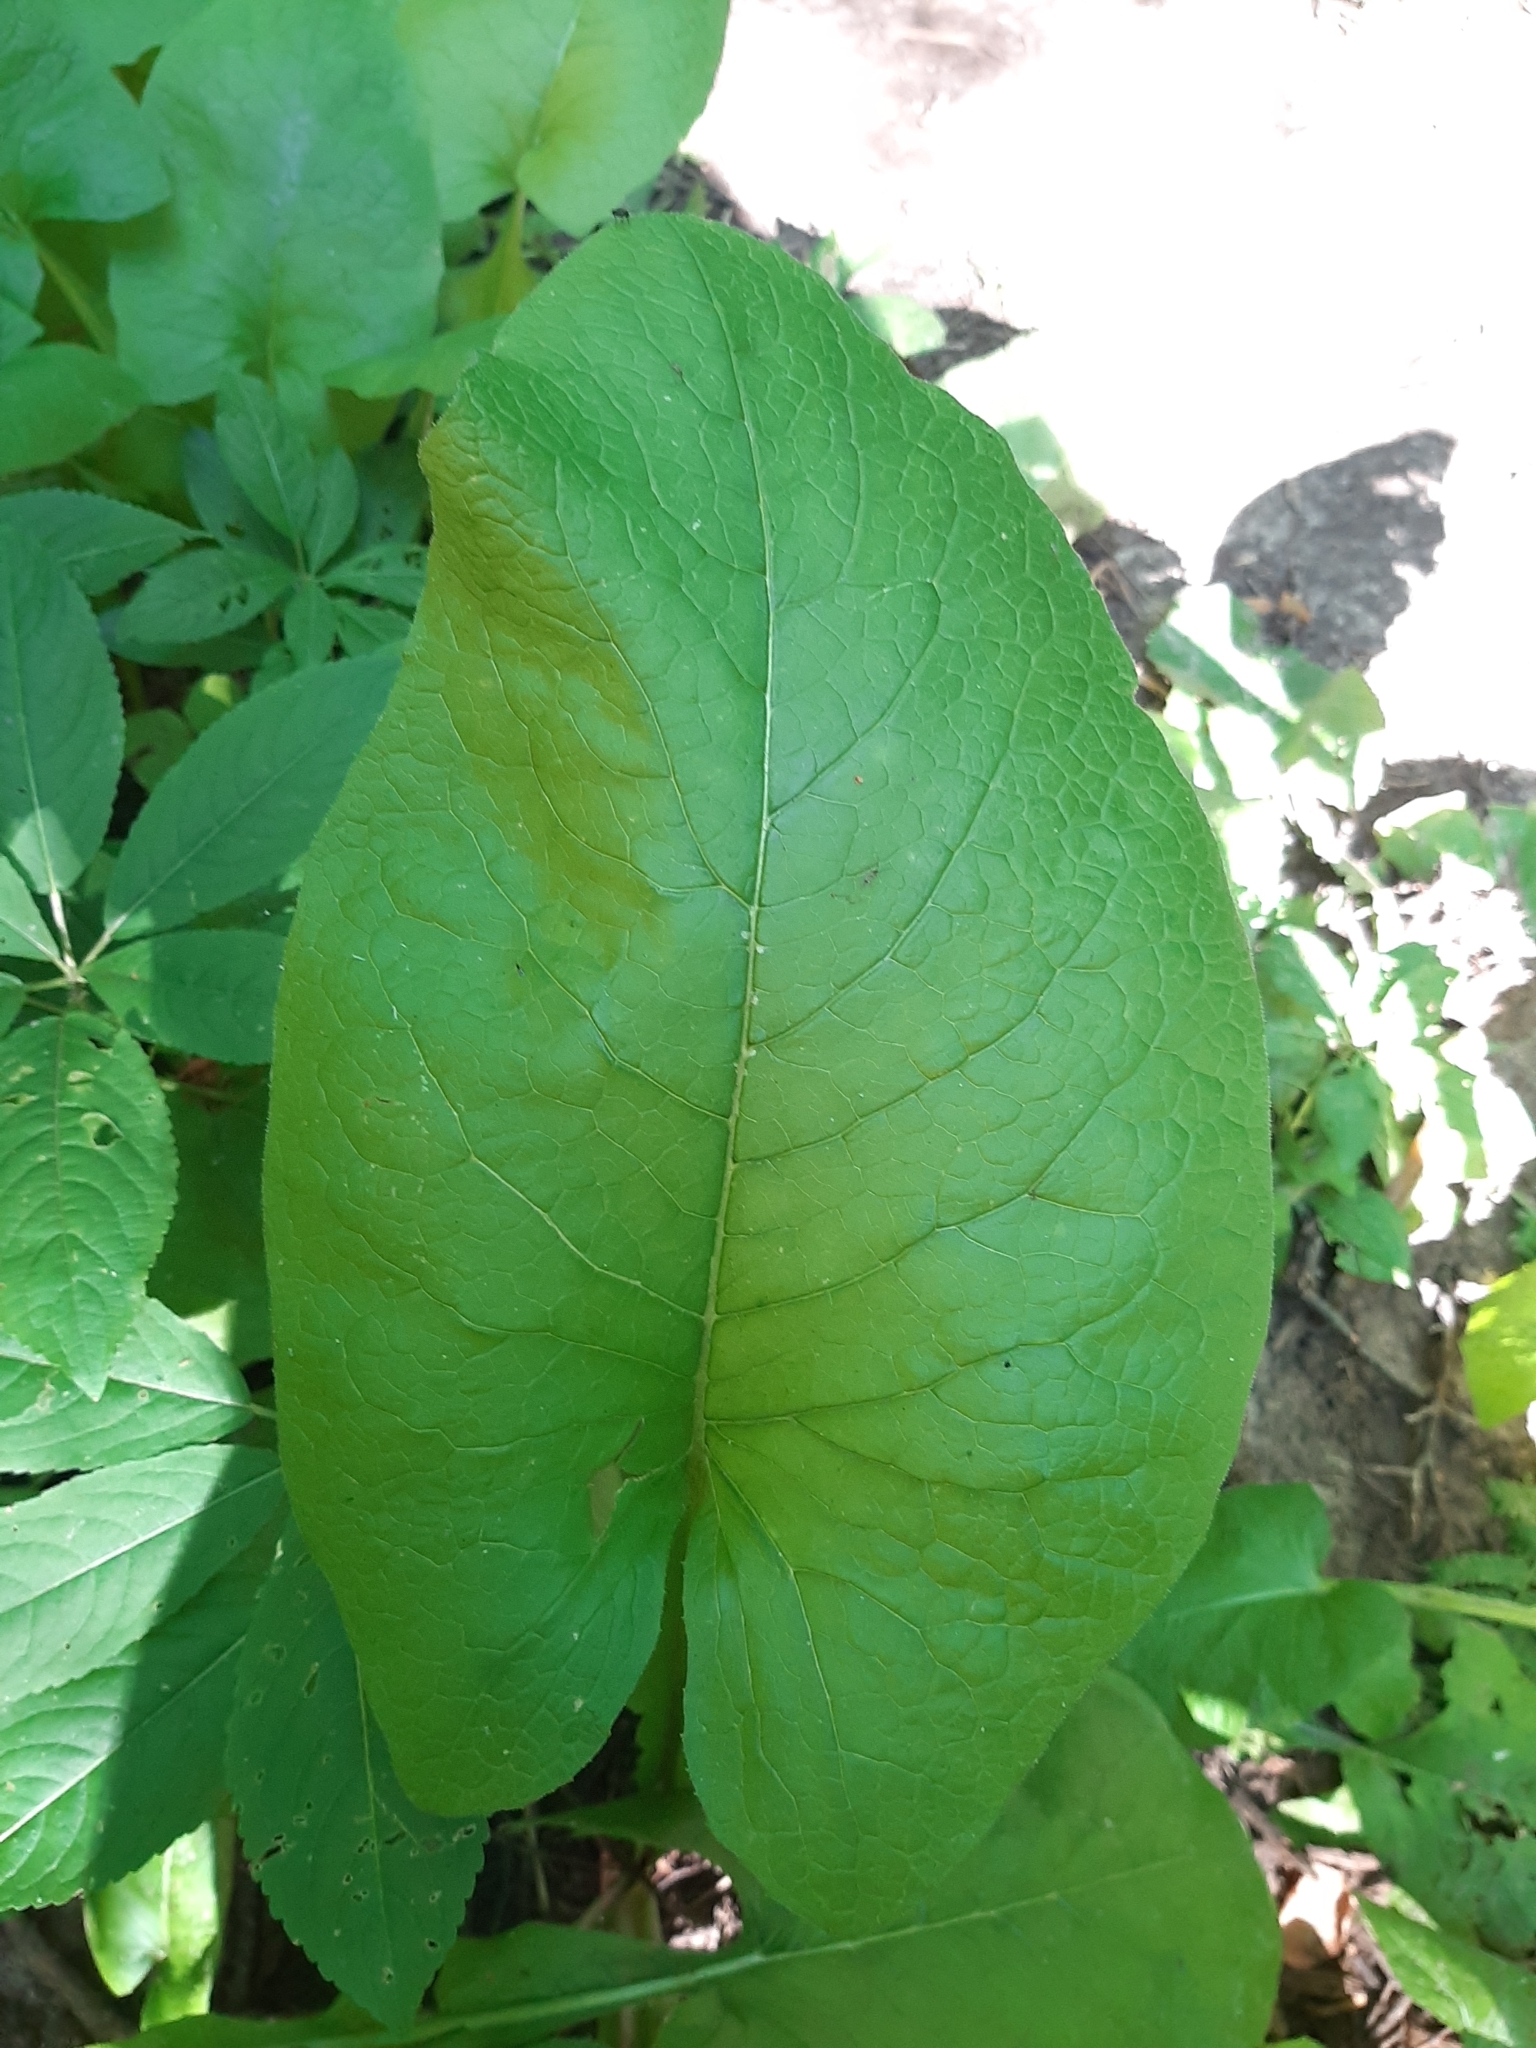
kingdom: Plantae
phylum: Tracheophyta
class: Magnoliopsida
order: Asterales
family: Asteraceae
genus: Lactuca
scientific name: Lactuca macrophylla
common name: Common blue-sow-thistle
